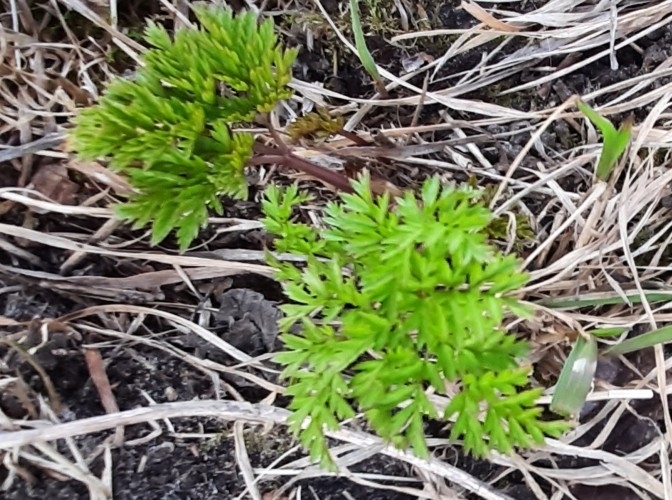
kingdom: Plantae
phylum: Tracheophyta
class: Magnoliopsida
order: Apiales
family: Apiaceae
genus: Anthriscus
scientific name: Anthriscus sylvestris
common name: Cow parsley
